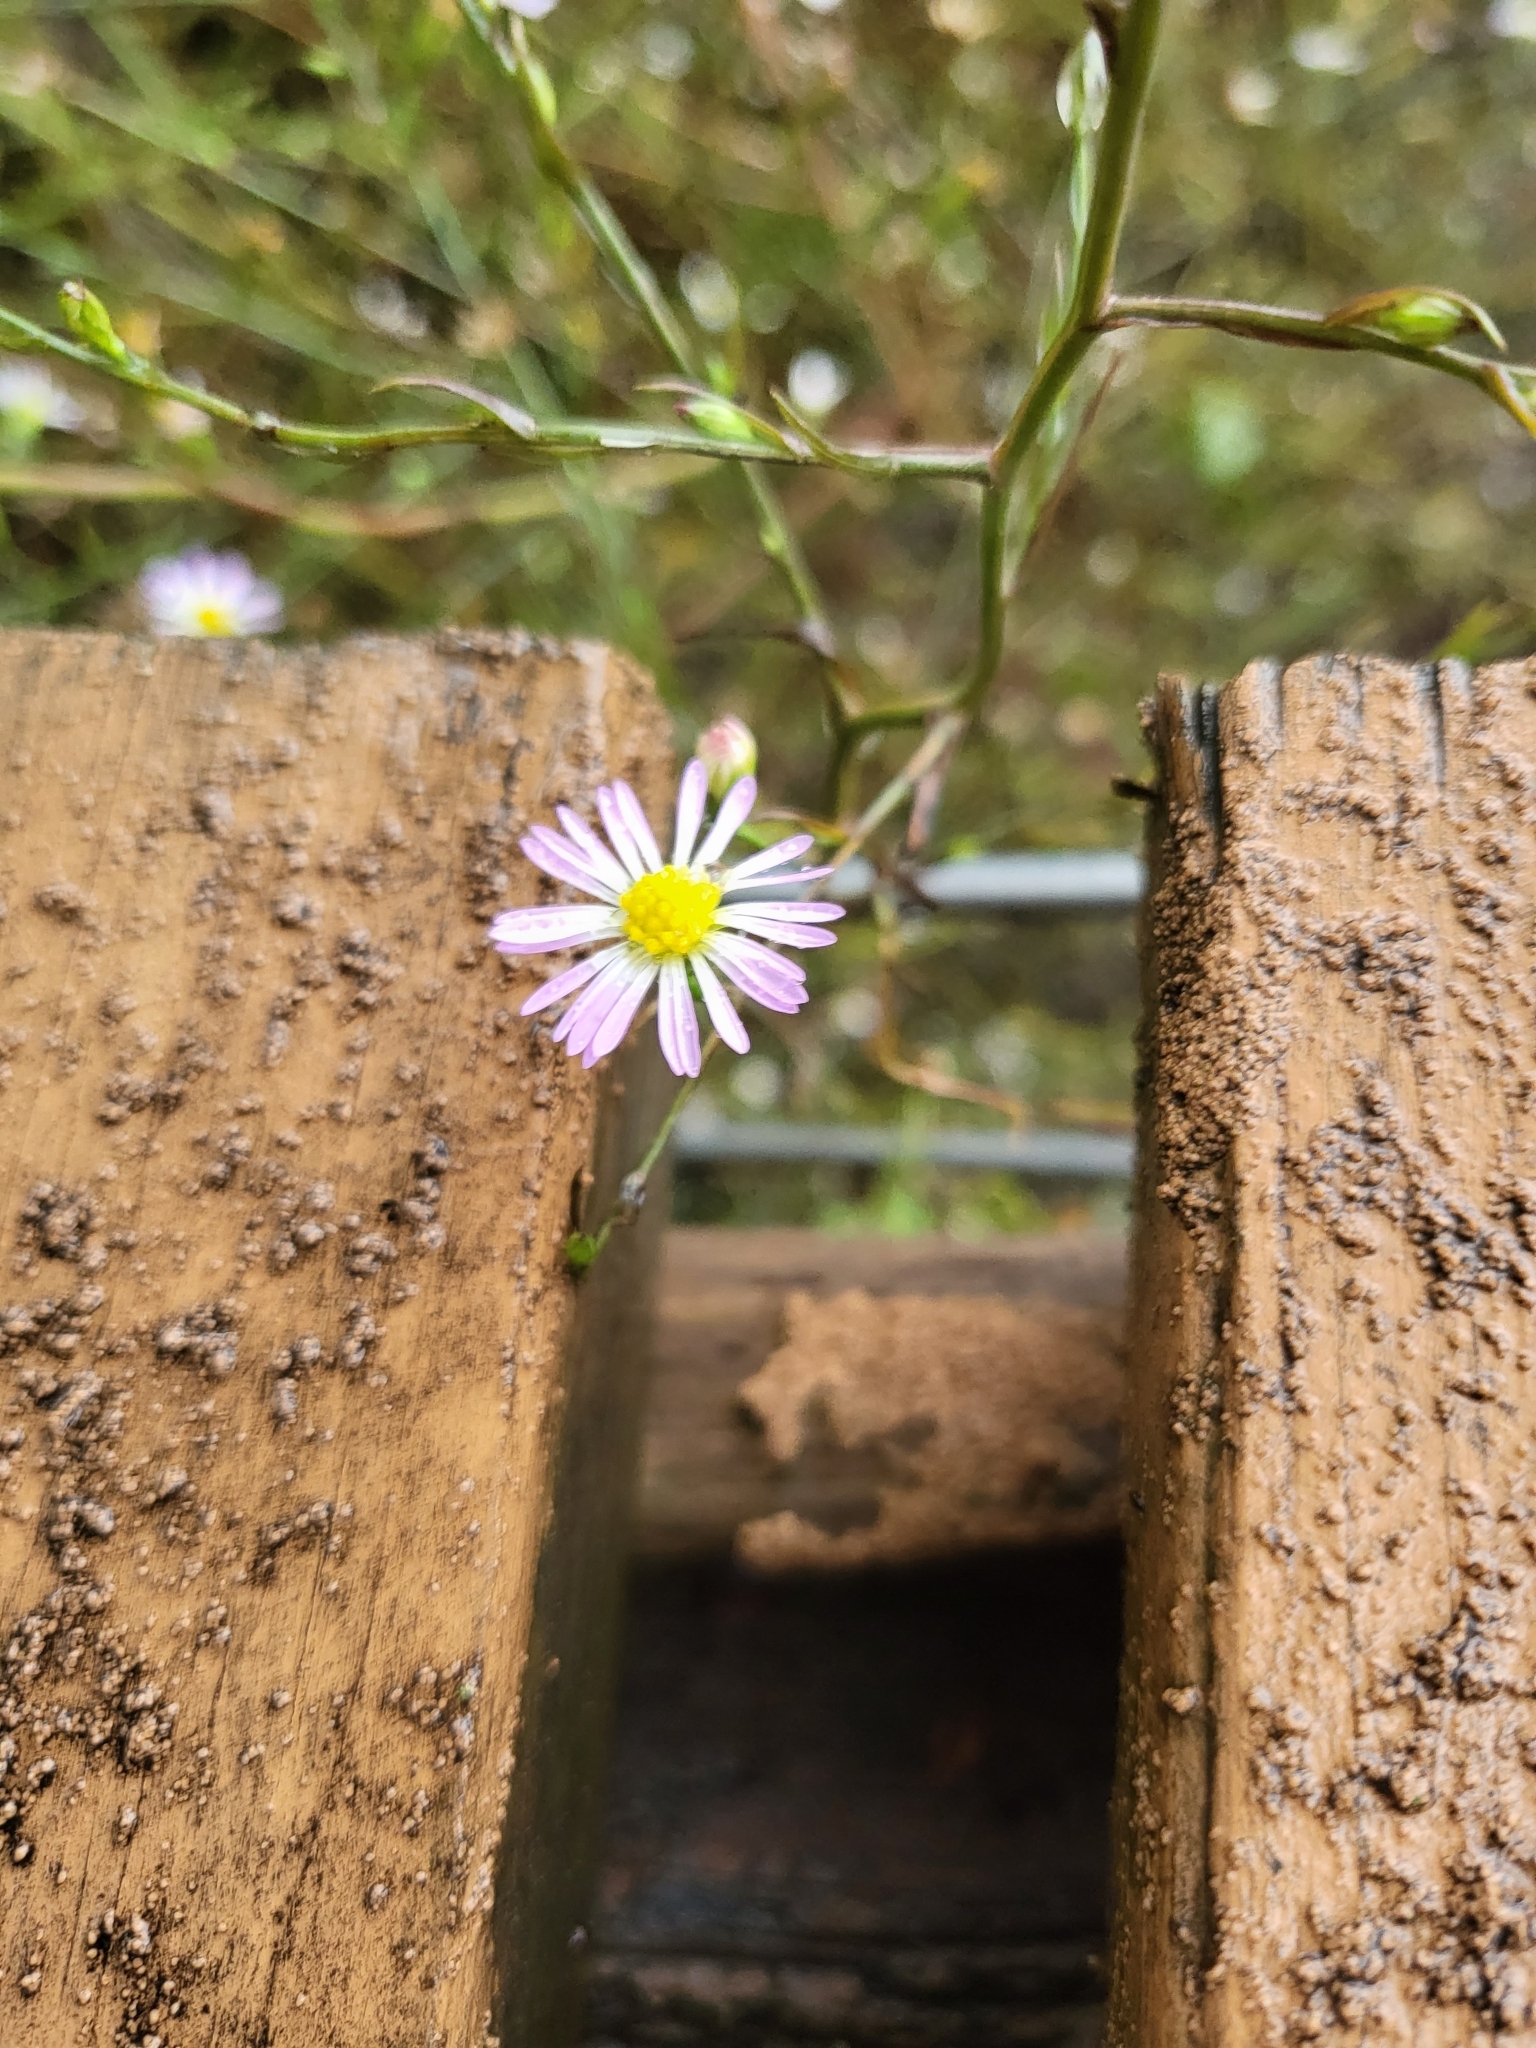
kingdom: Plantae
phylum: Tracheophyta
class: Magnoliopsida
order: Asterales
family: Asteraceae
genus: Symphyotrichum
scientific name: Symphyotrichum divaricatum
